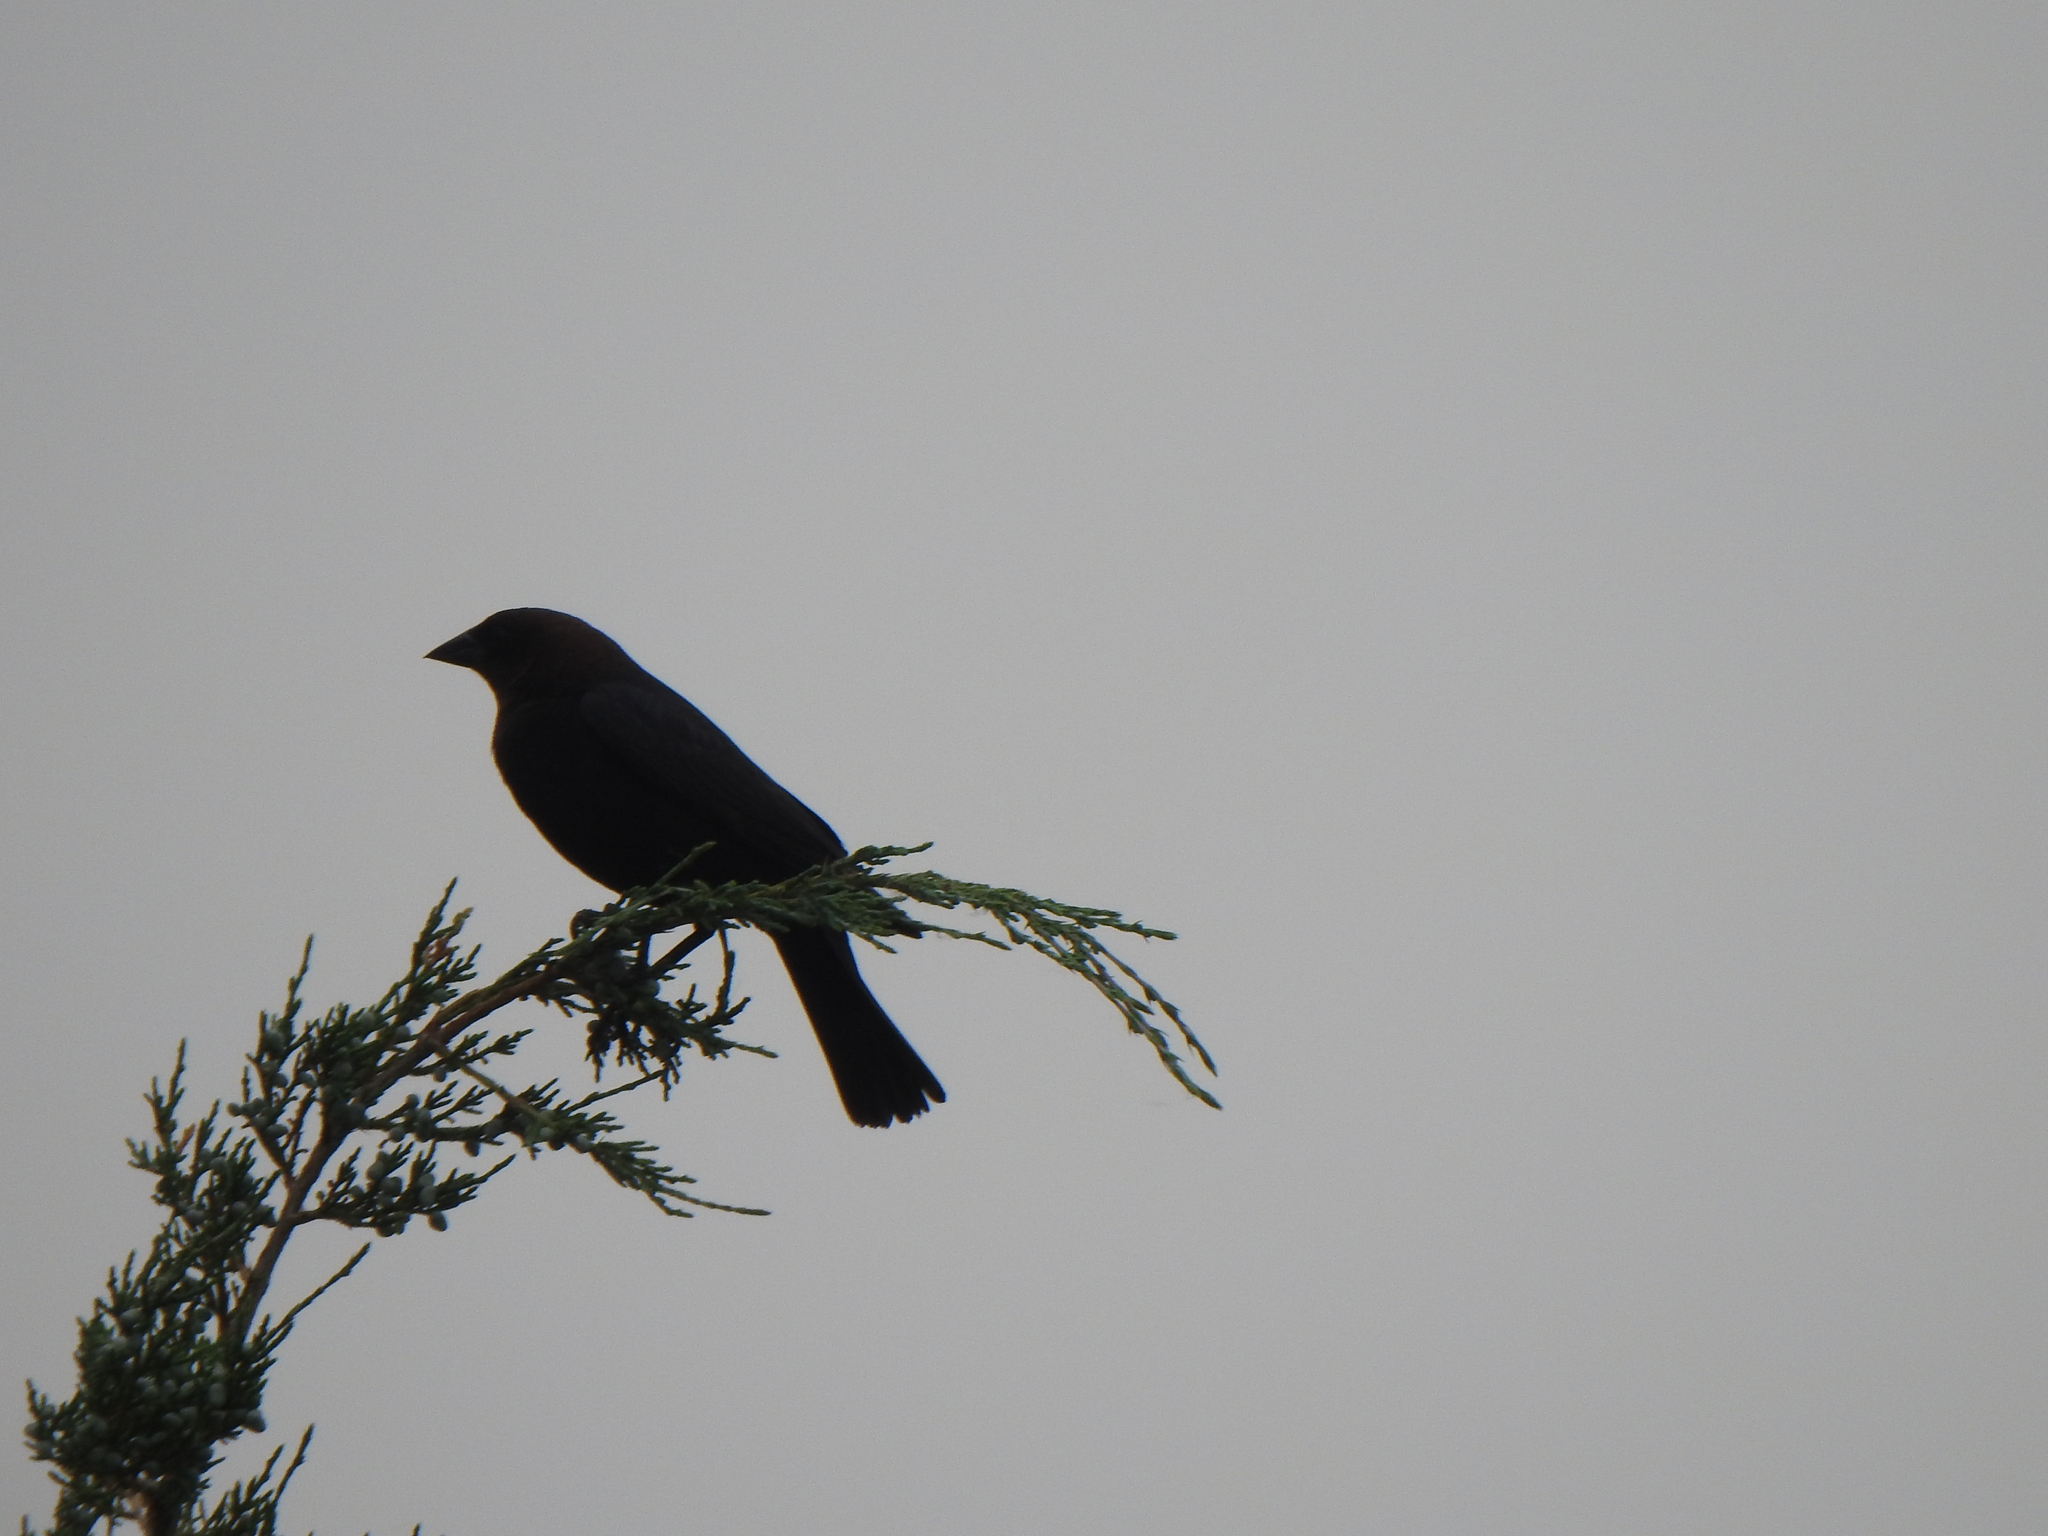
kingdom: Animalia
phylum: Chordata
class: Aves
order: Passeriformes
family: Icteridae
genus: Molothrus
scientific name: Molothrus ater
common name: Brown-headed cowbird
